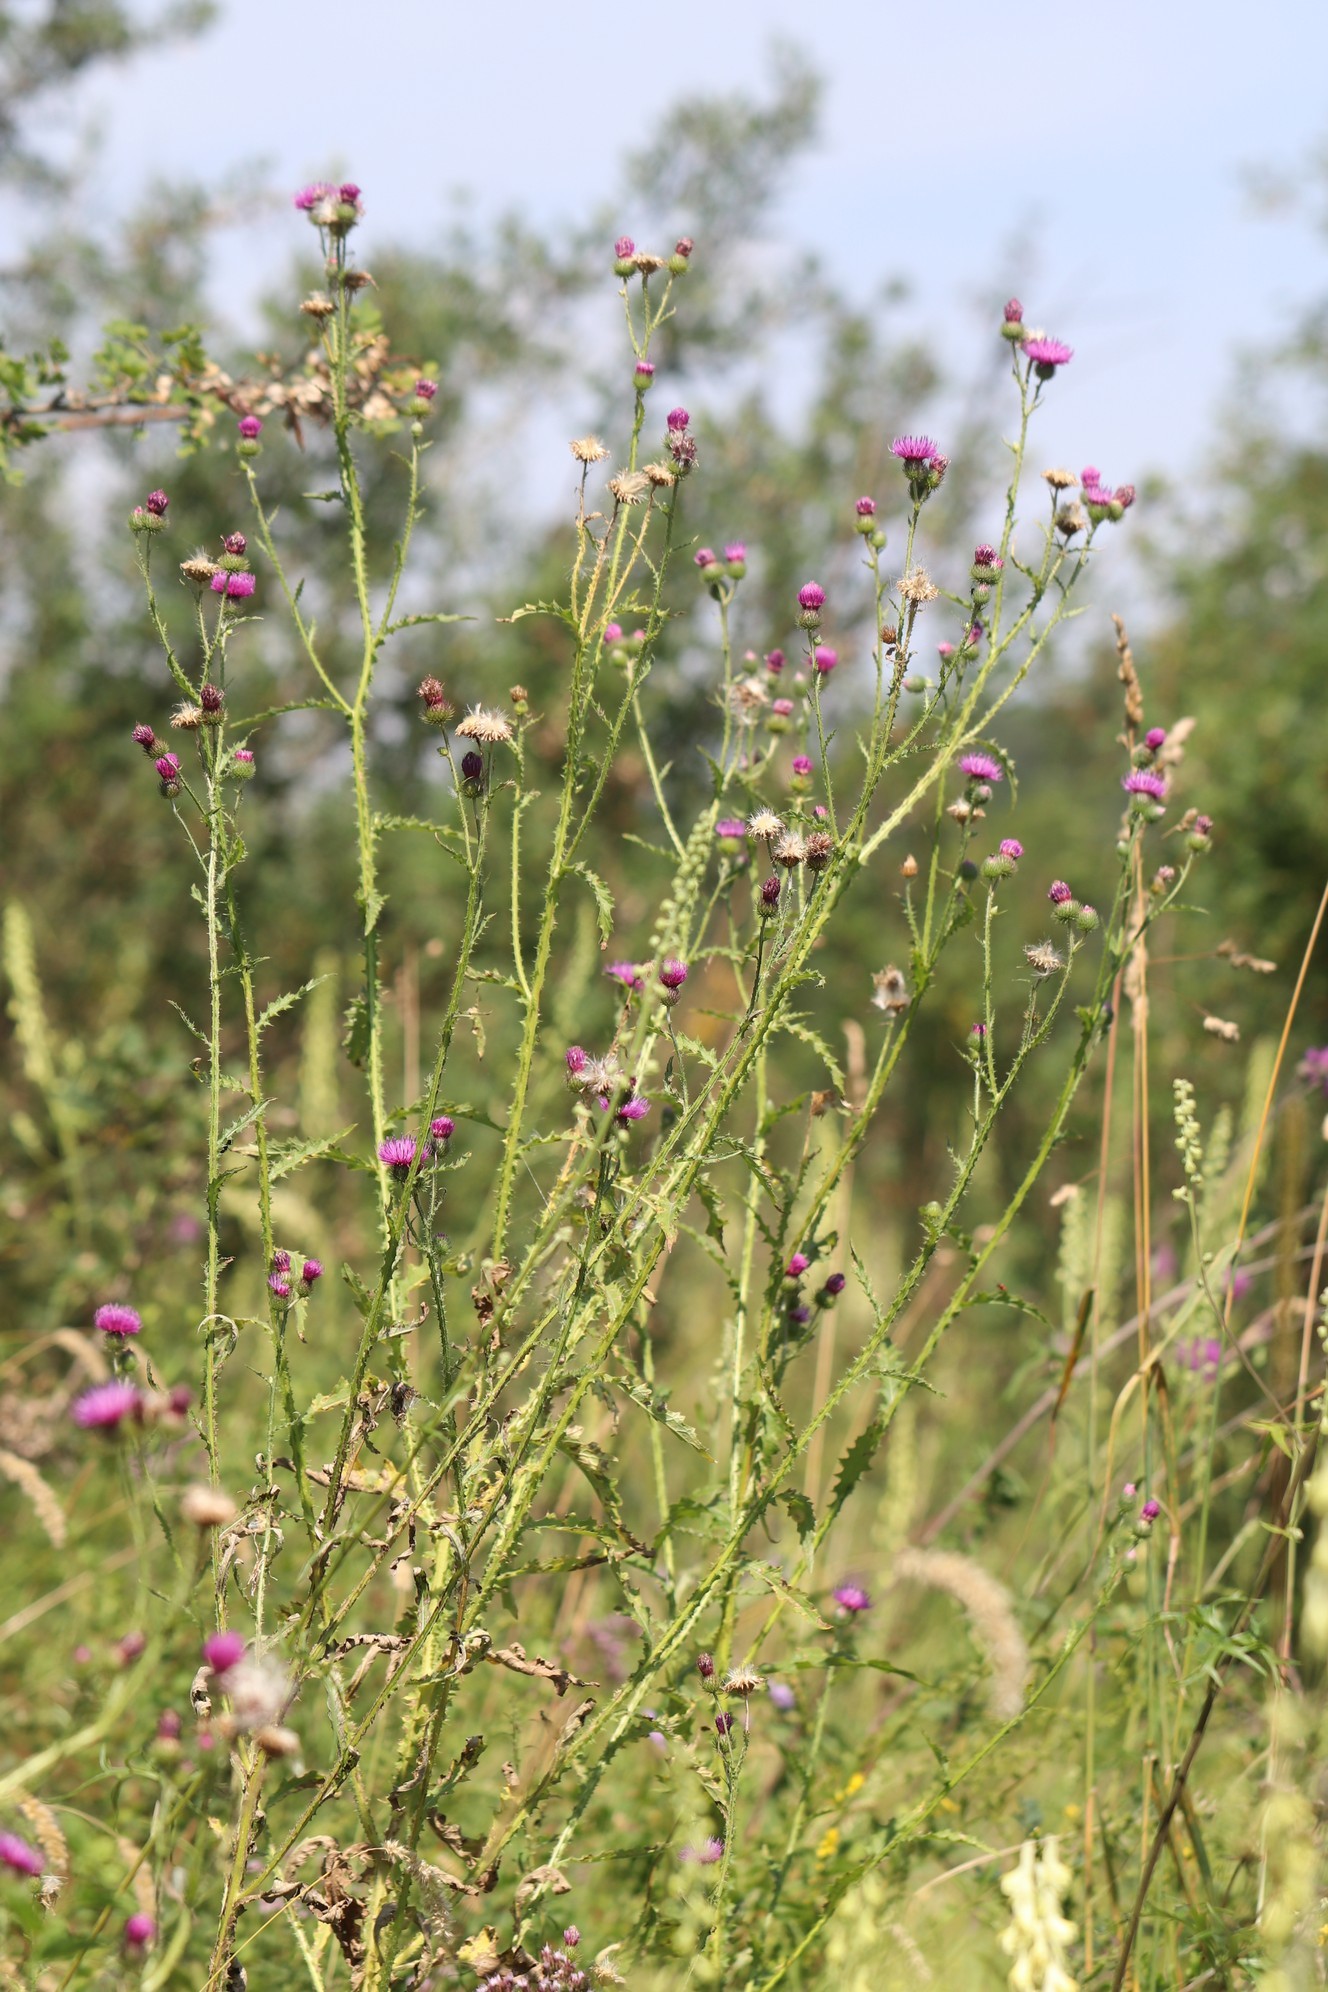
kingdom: Plantae
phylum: Tracheophyta
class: Magnoliopsida
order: Asterales
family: Asteraceae
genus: Carduus
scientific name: Carduus crispus
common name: Welted thistle
